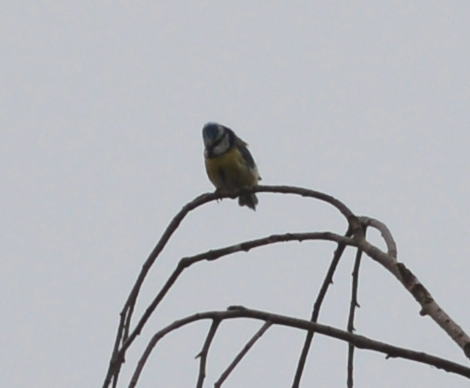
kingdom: Animalia
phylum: Chordata
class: Aves
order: Passeriformes
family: Paridae
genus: Cyanistes
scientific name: Cyanistes caeruleus
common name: Eurasian blue tit
